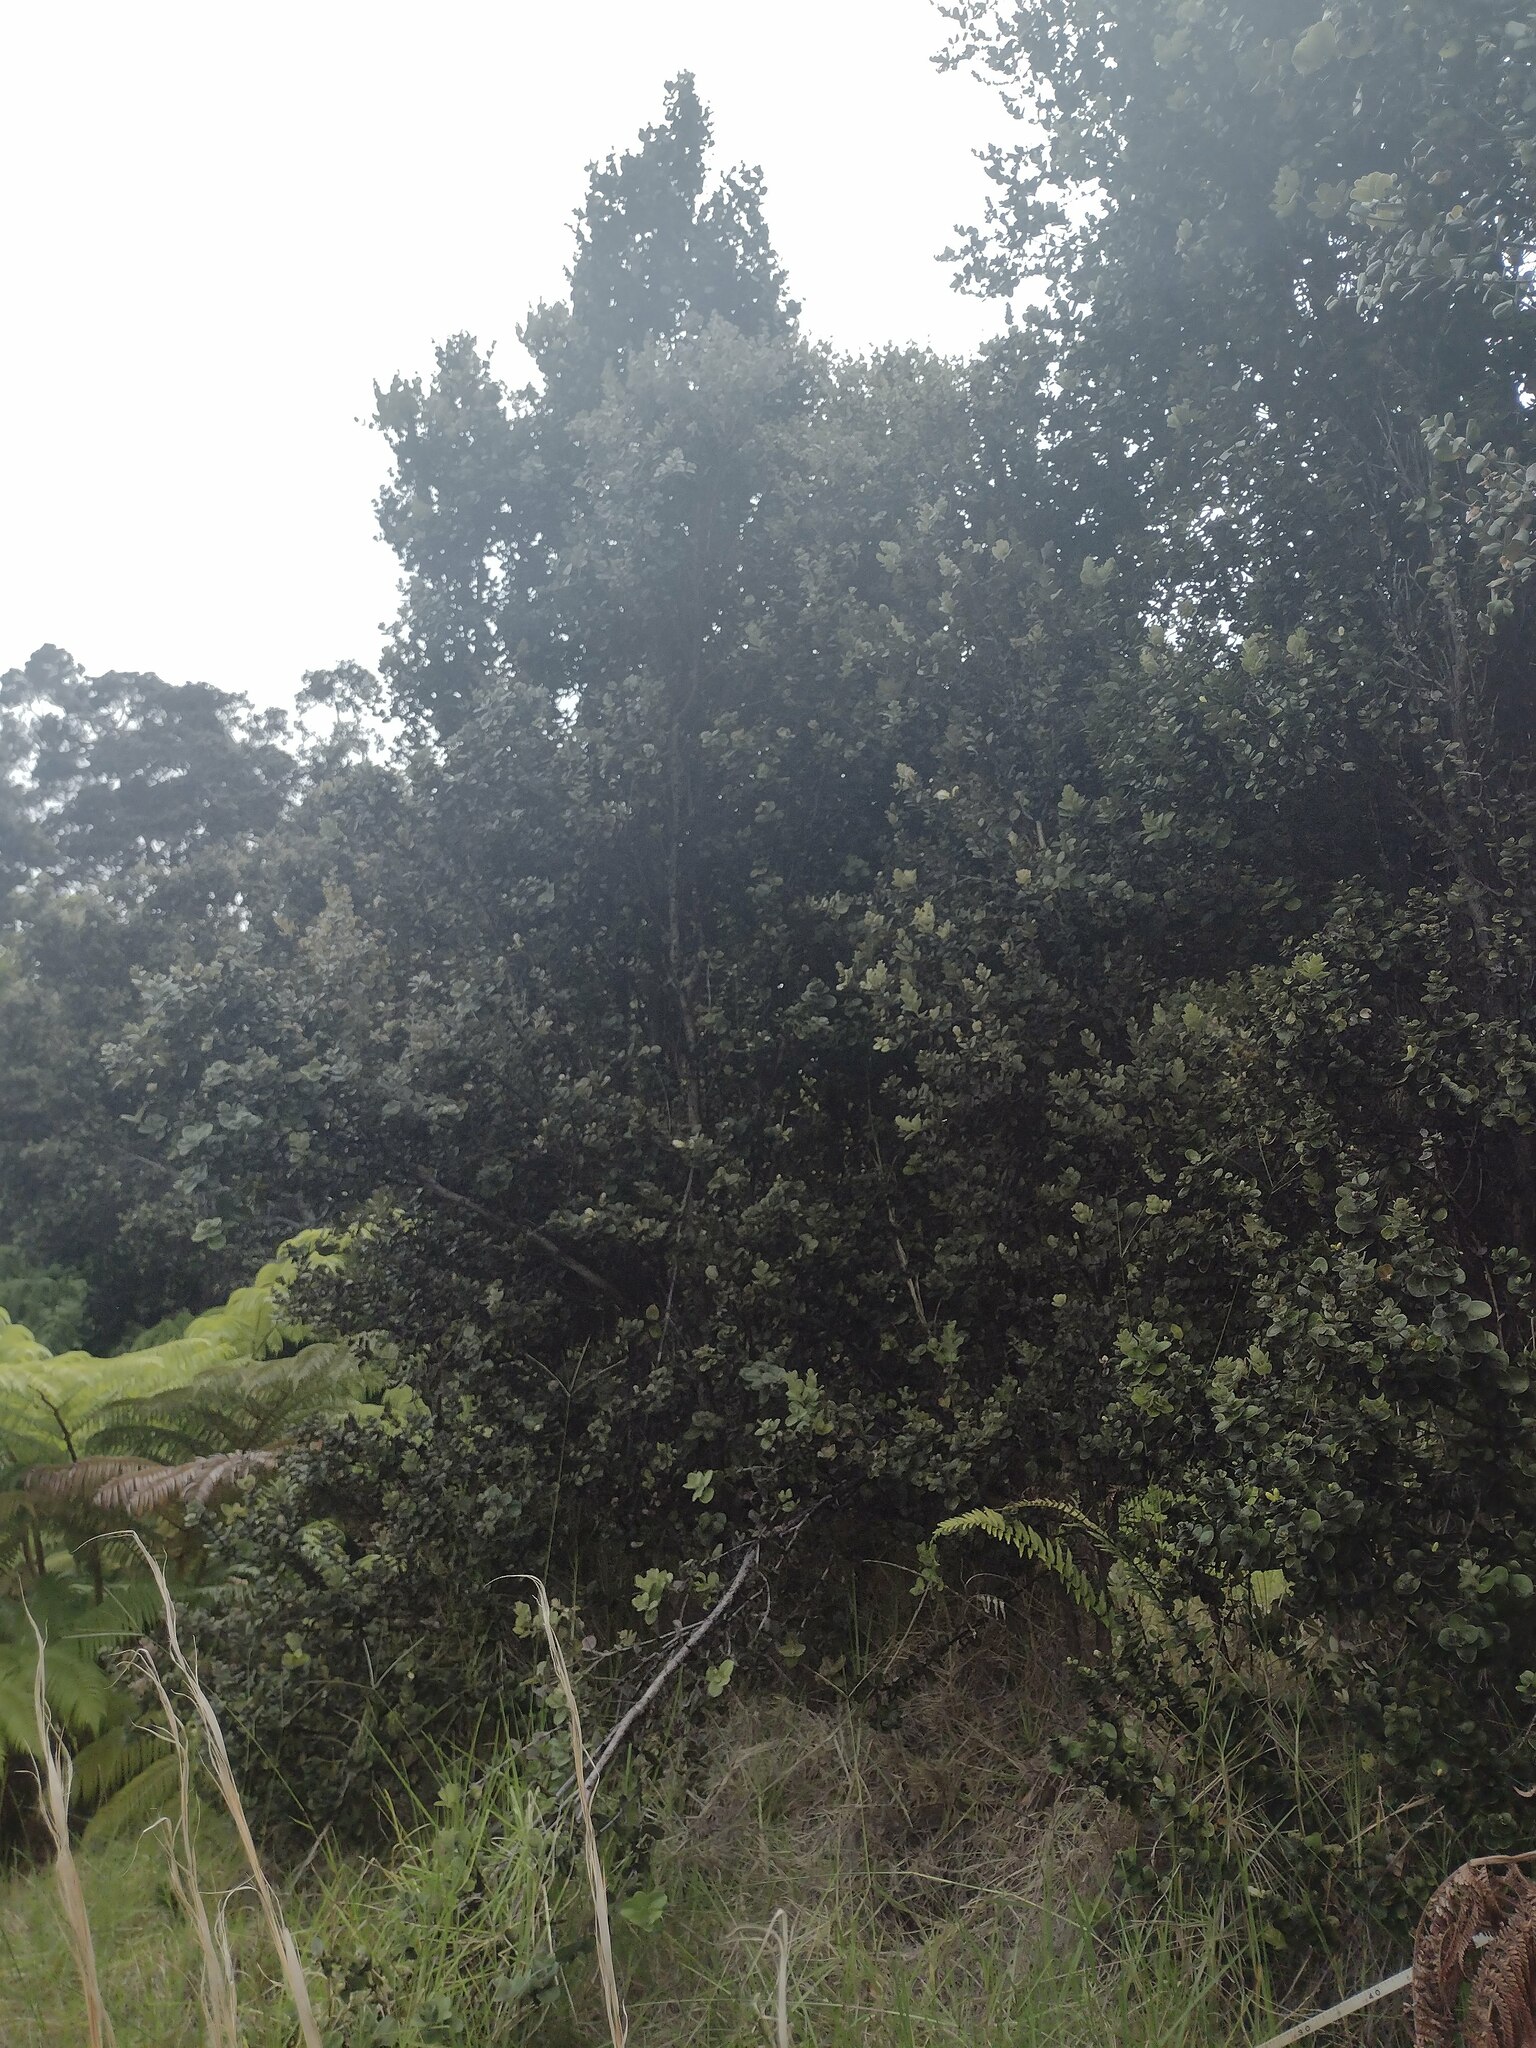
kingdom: Plantae
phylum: Tracheophyta
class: Magnoliopsida
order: Myrtales
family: Myrtaceae
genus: Metrosideros
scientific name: Metrosideros polymorpha
